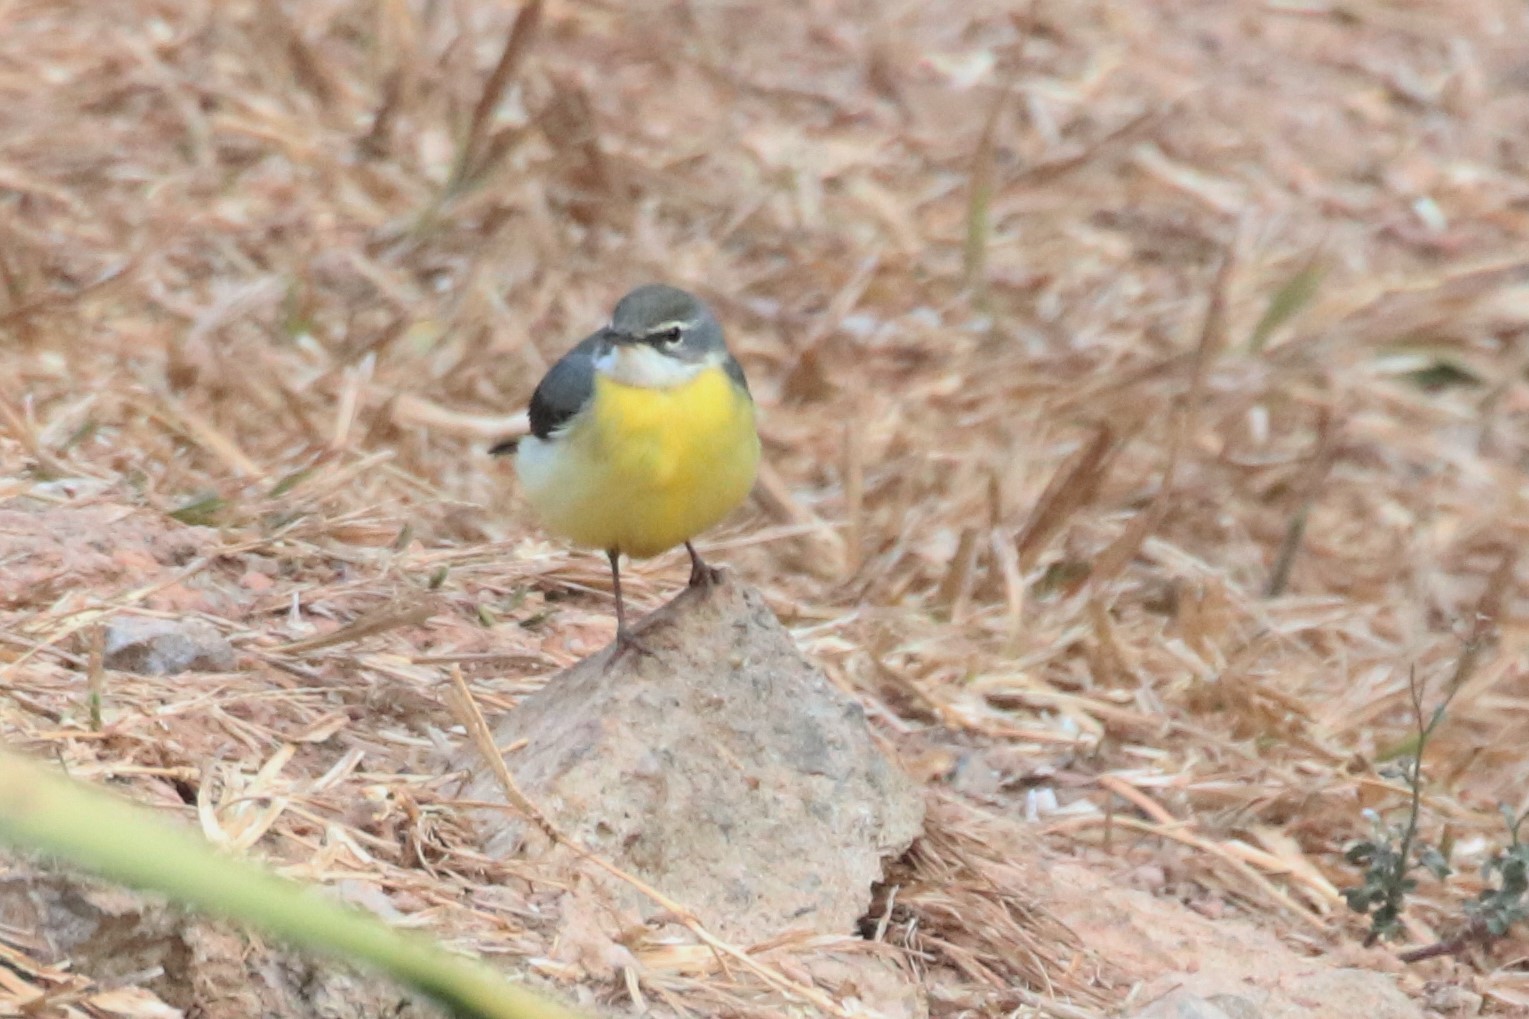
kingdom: Animalia
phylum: Chordata
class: Aves
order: Passeriformes
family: Motacillidae
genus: Motacilla
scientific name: Motacilla cinerea
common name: Grey wagtail
